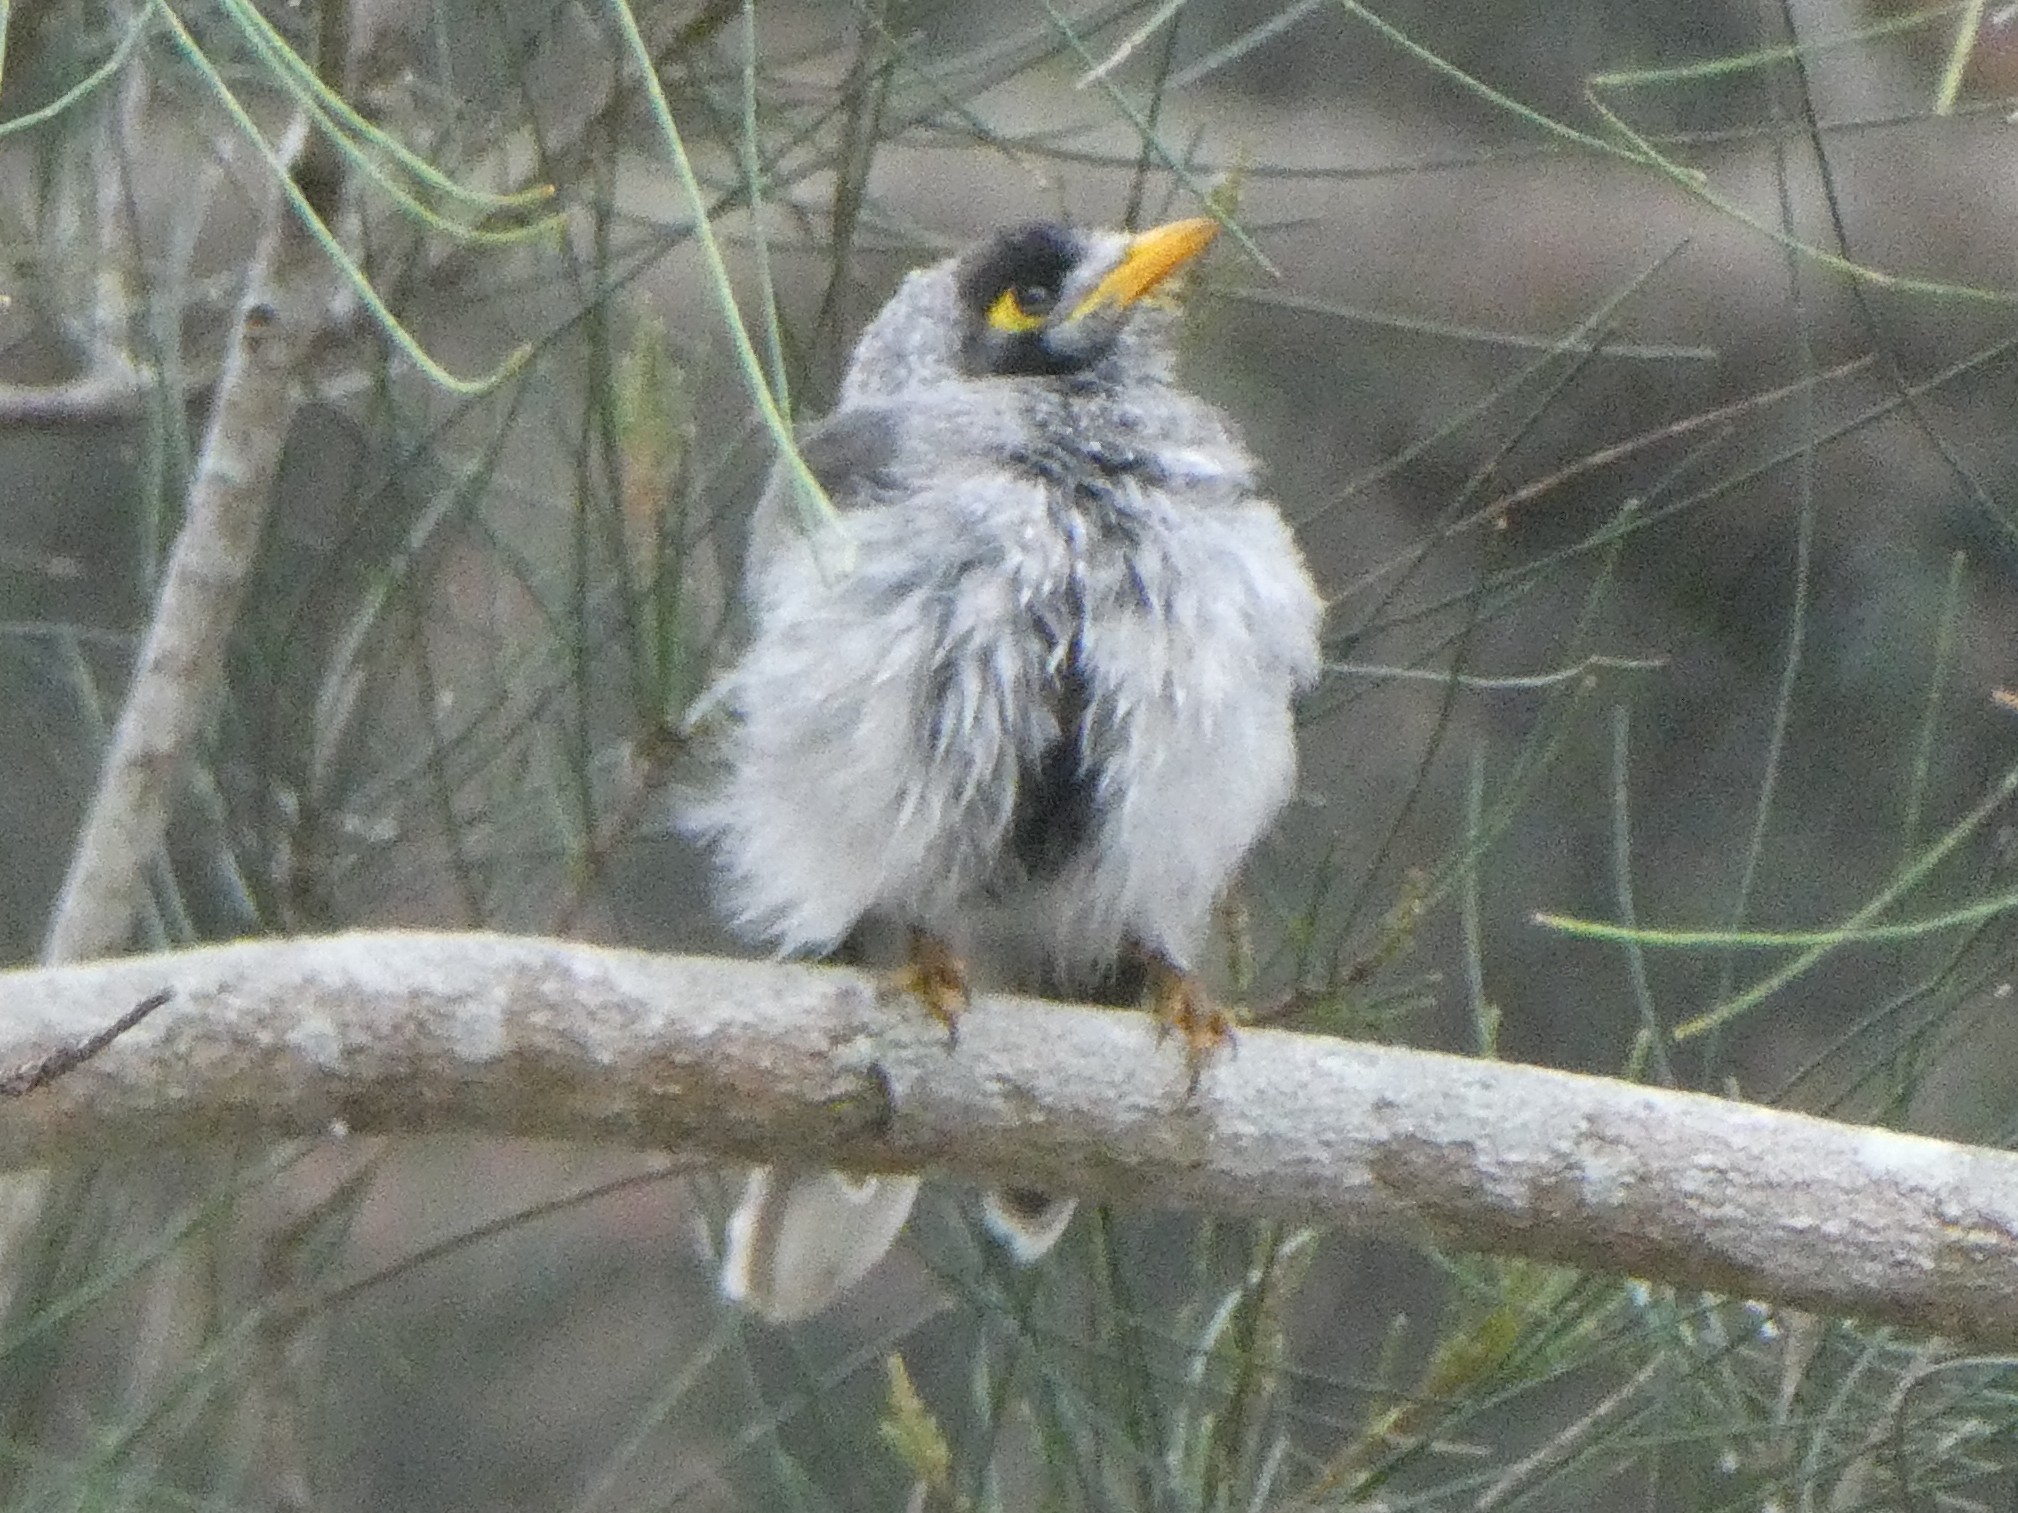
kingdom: Animalia
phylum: Chordata
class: Aves
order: Passeriformes
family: Meliphagidae
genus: Manorina
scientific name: Manorina melanocephala
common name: Noisy miner
